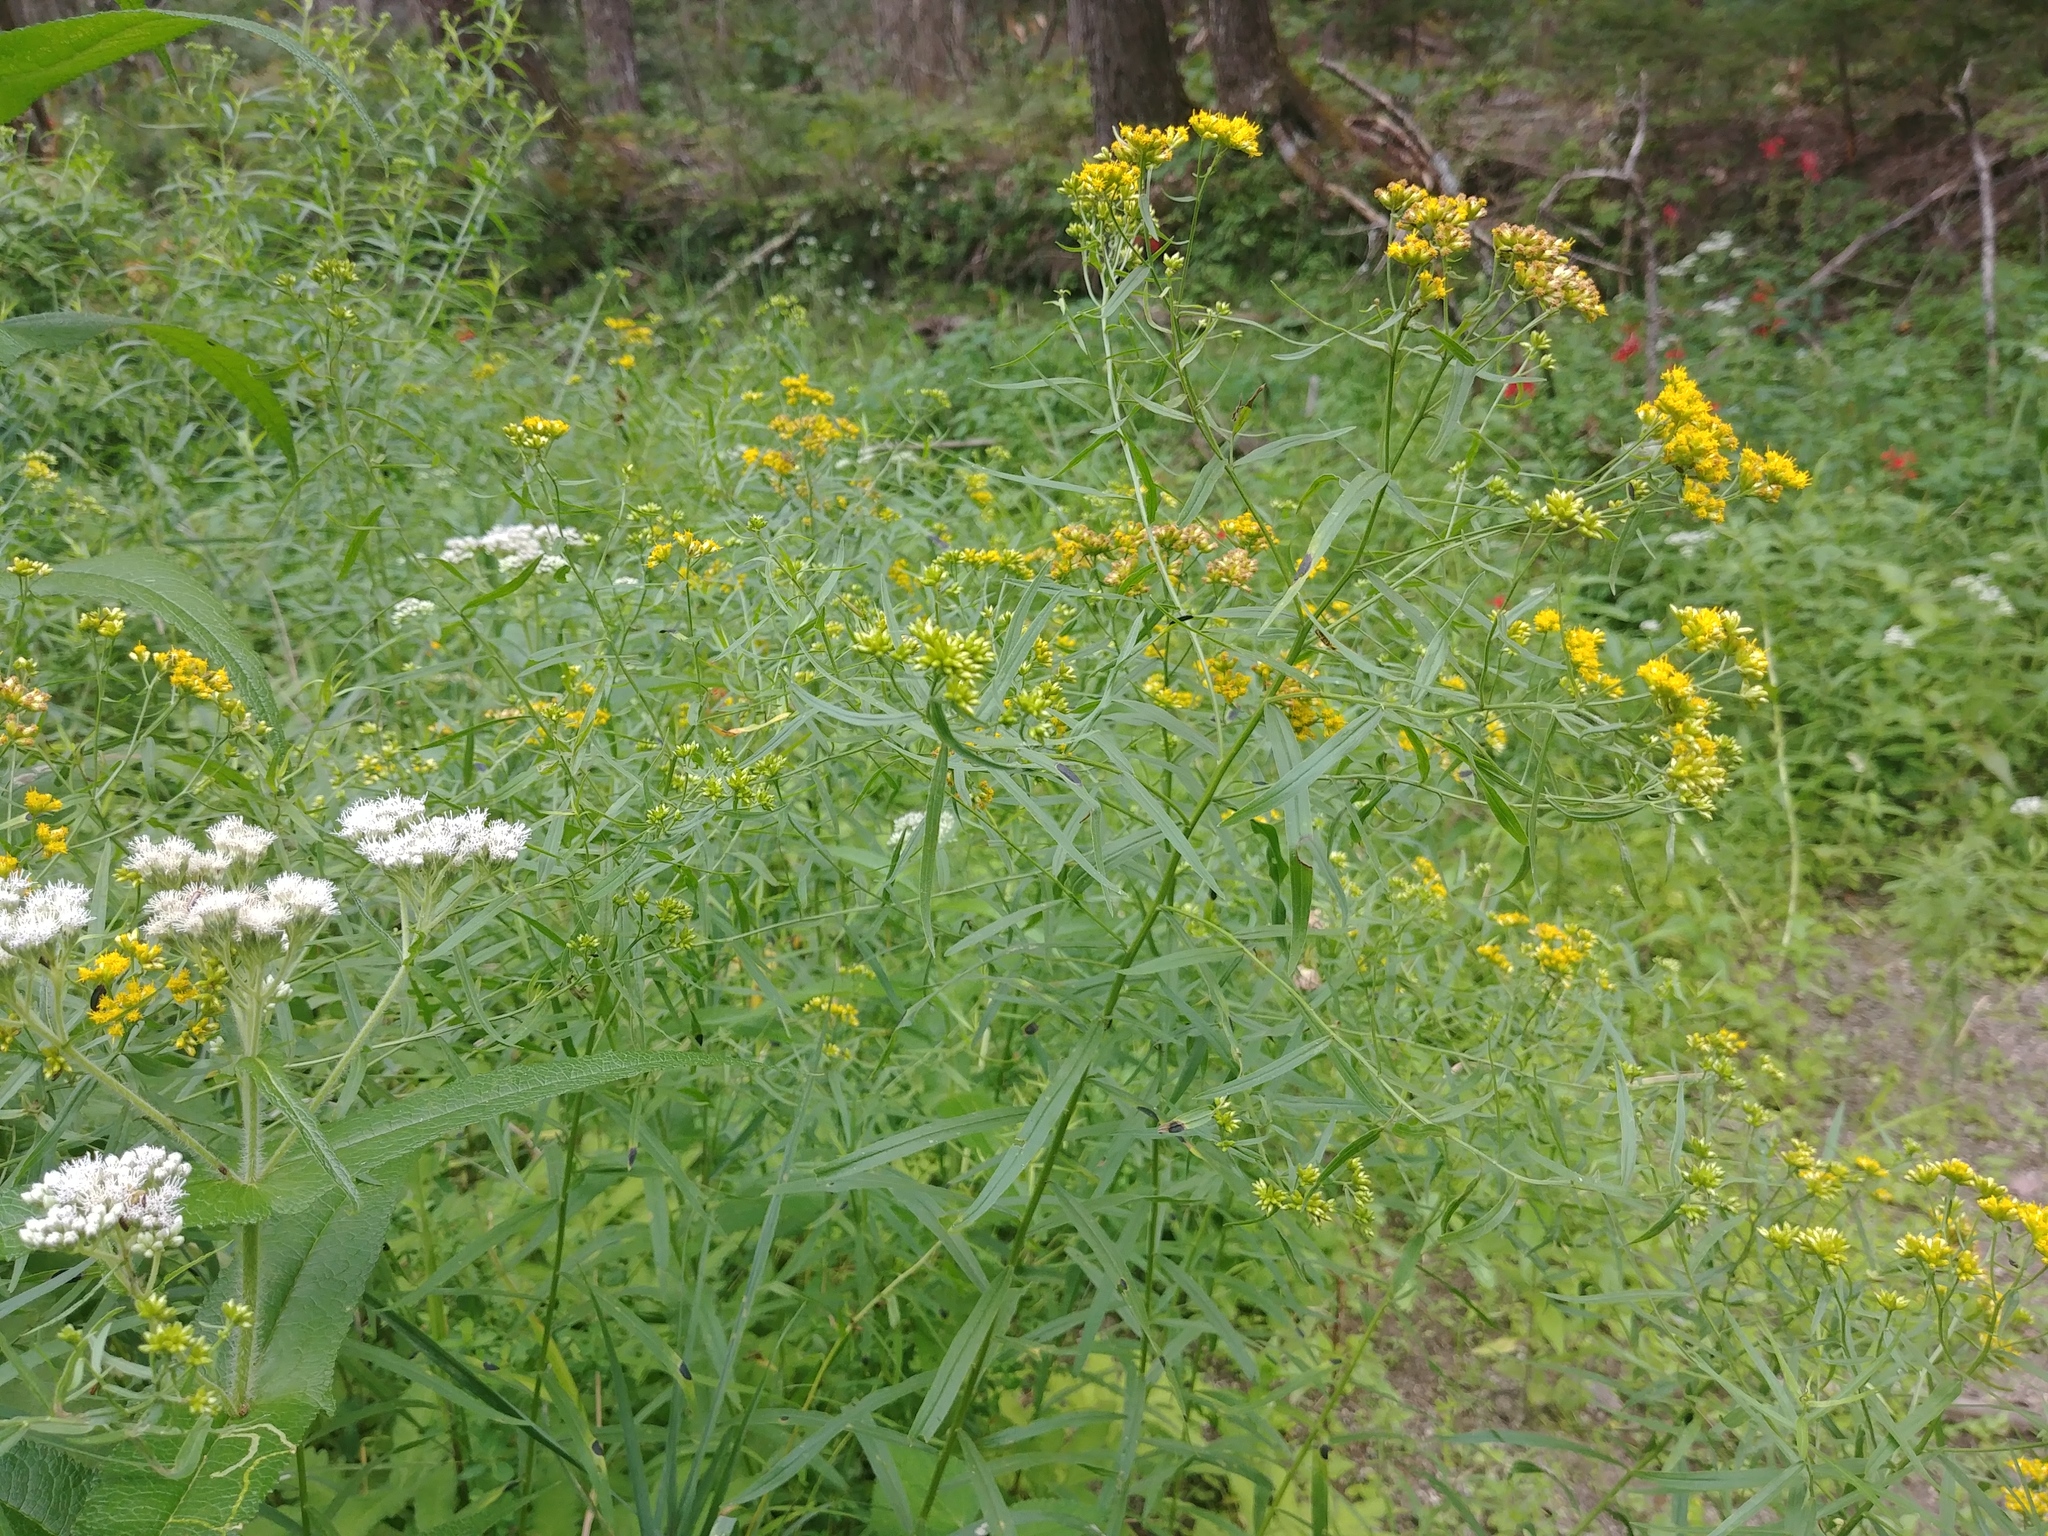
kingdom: Plantae
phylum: Tracheophyta
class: Magnoliopsida
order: Asterales
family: Asteraceae
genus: Euthamia
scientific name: Euthamia graminifolia
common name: Common goldentop
